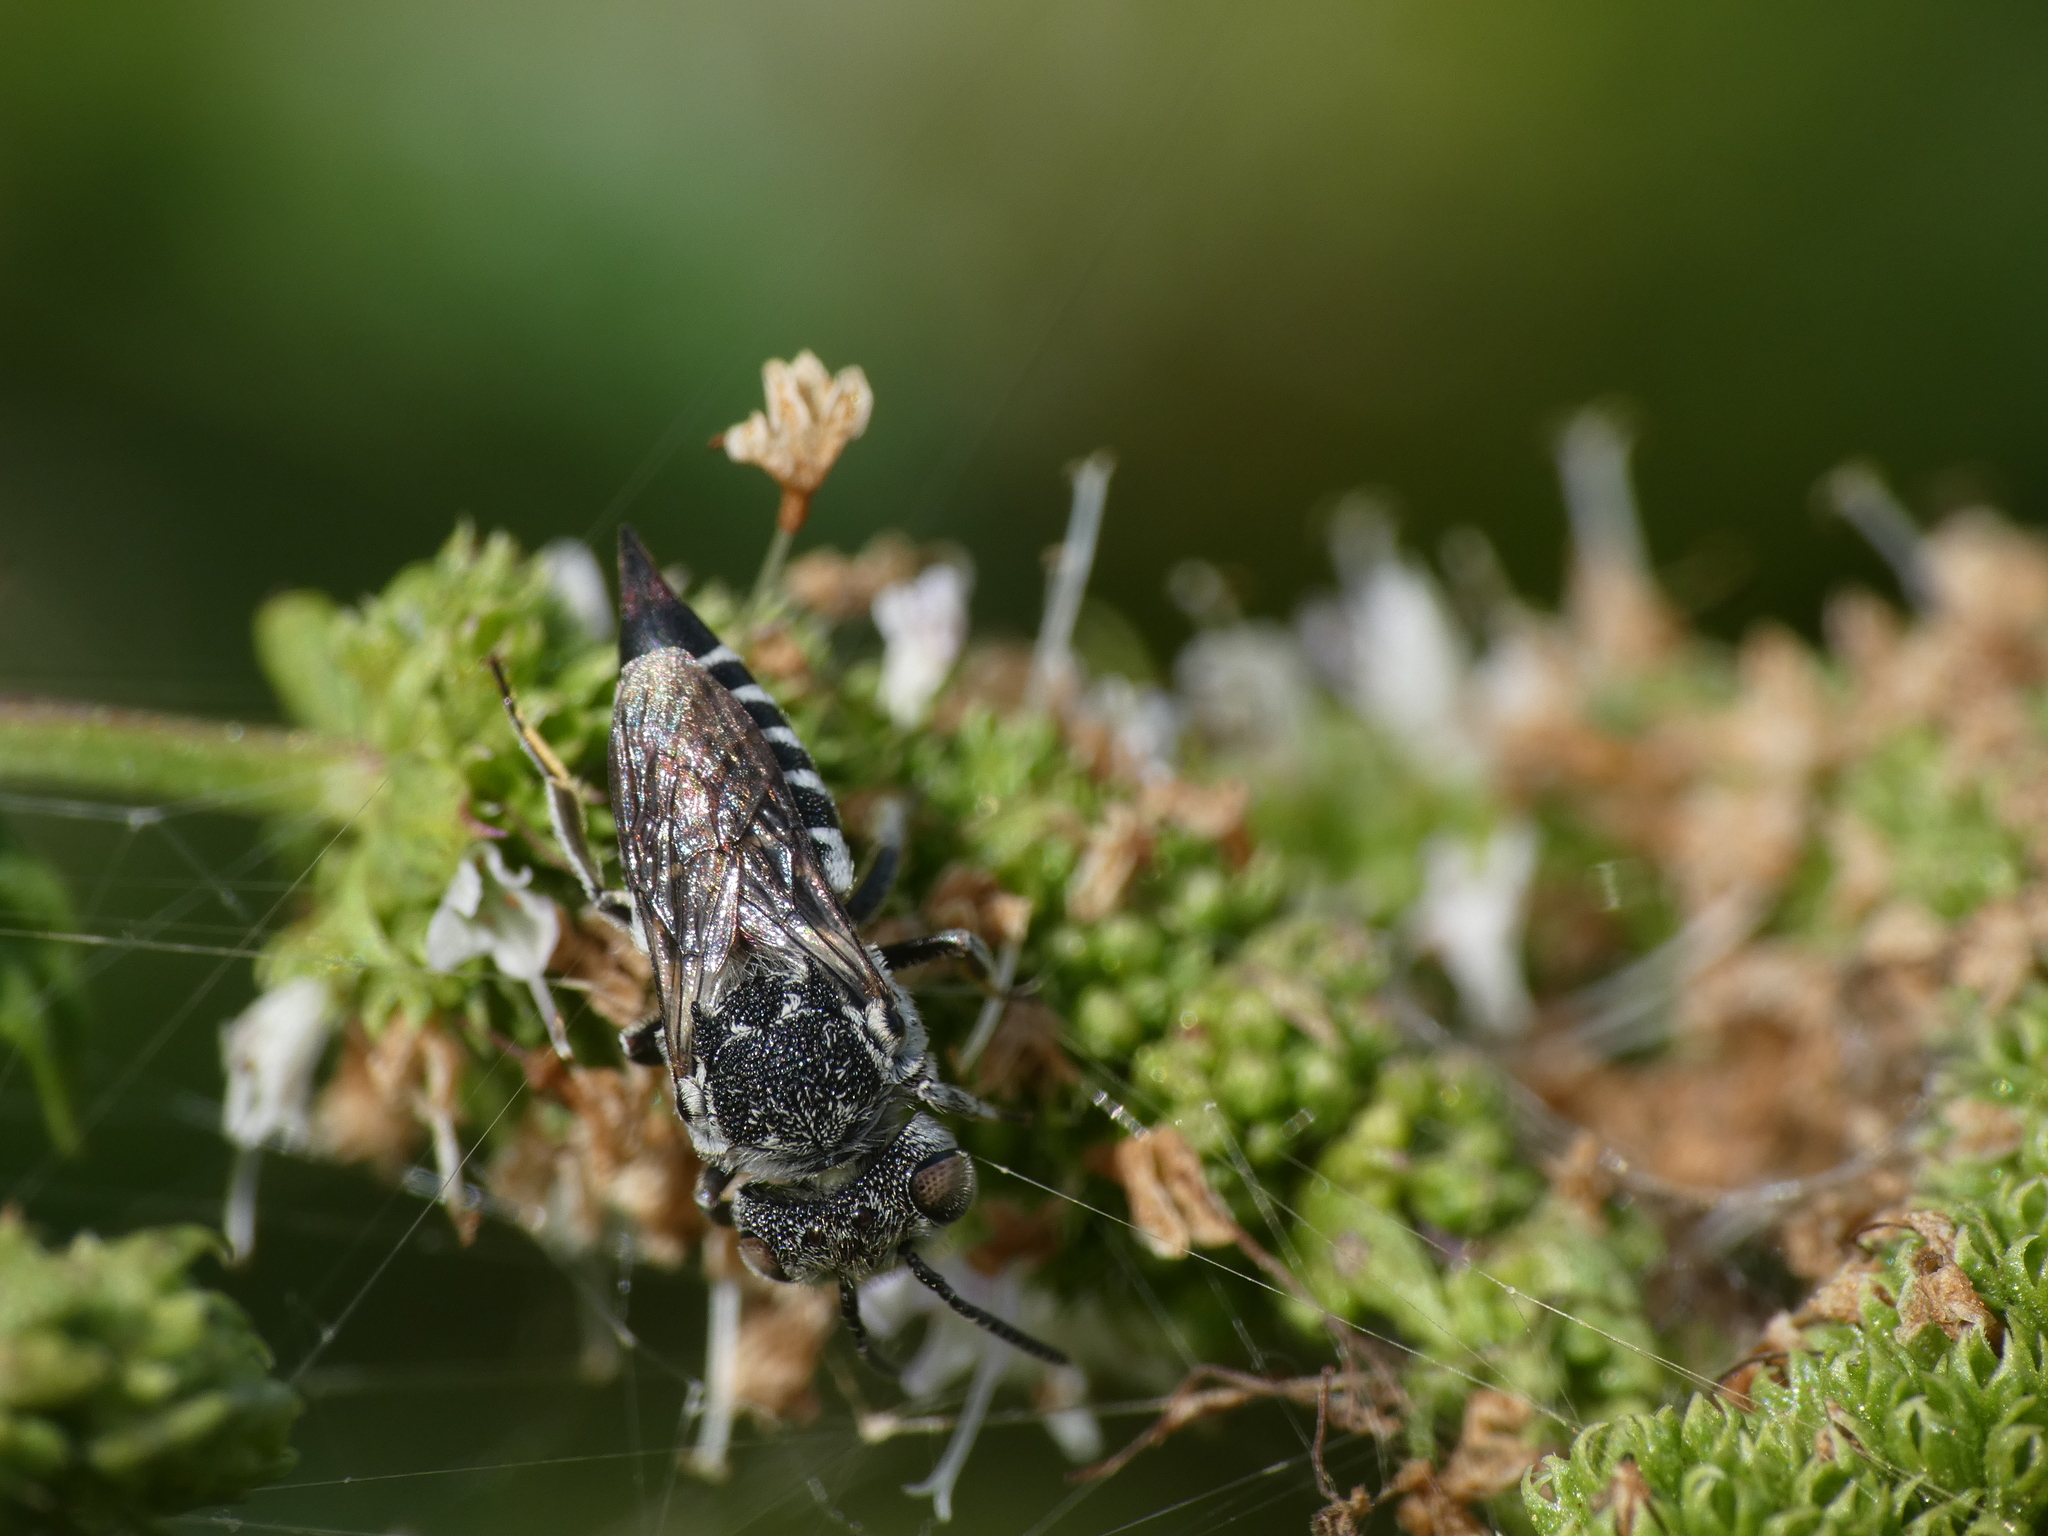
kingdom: Animalia
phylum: Arthropoda
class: Insecta
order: Hymenoptera
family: Megachilidae
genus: Coelioxys
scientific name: Coelioxys echinatus
